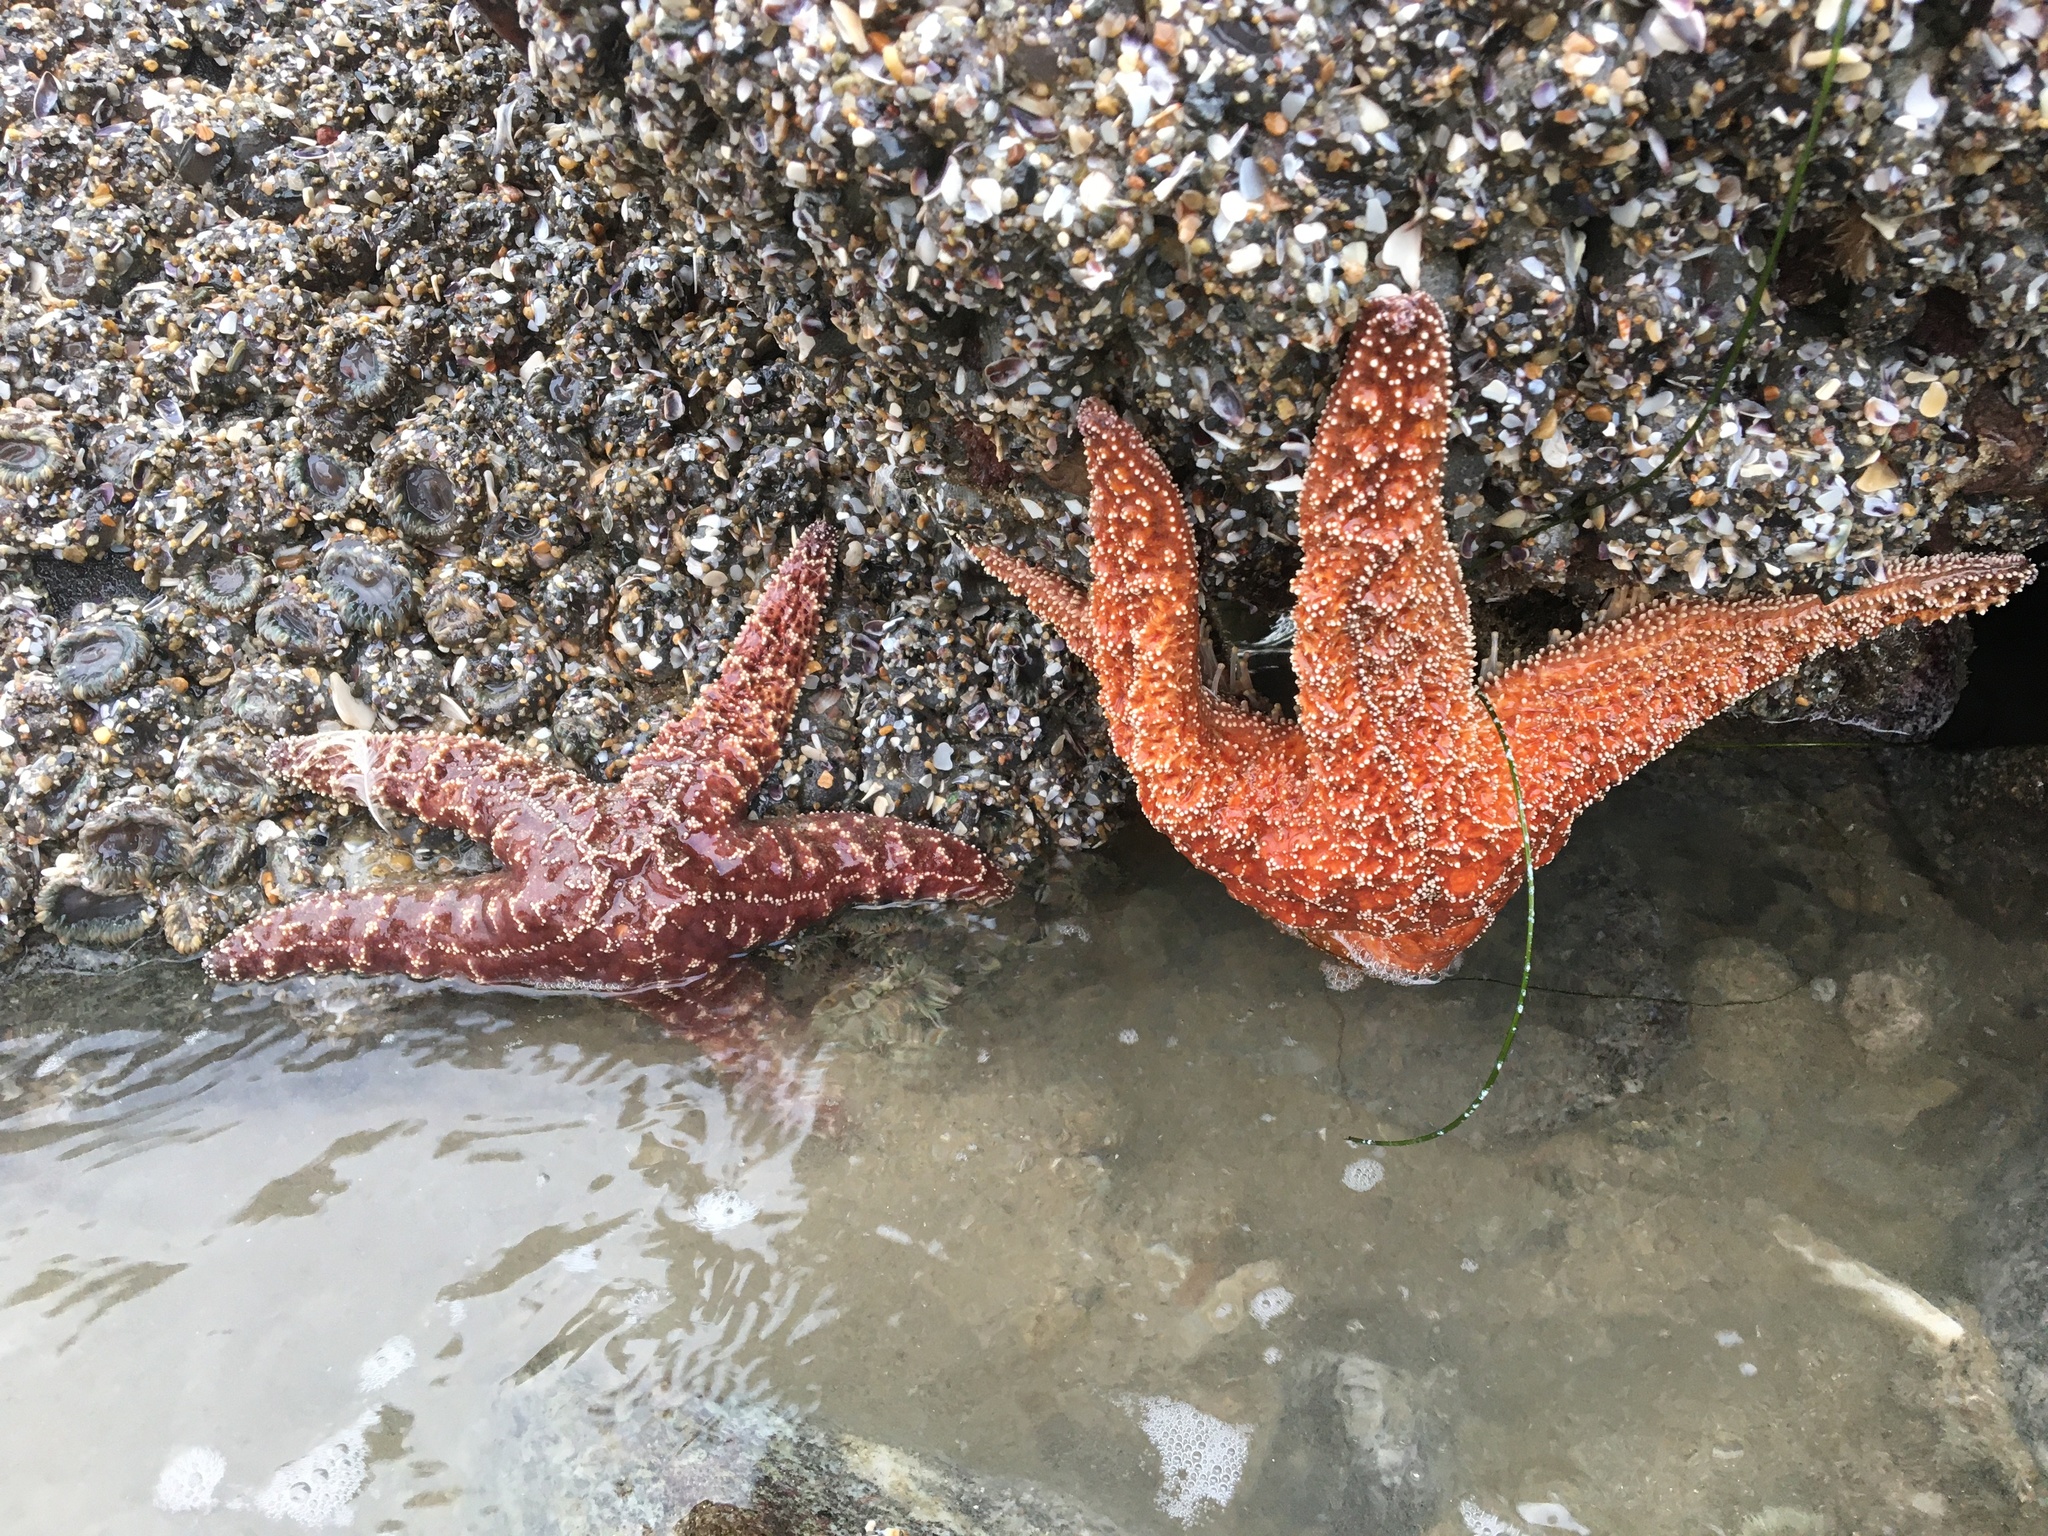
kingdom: Animalia
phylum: Echinodermata
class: Asteroidea
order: Forcipulatida
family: Asteriidae
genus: Pisaster
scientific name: Pisaster ochraceus
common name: Ochre stars
